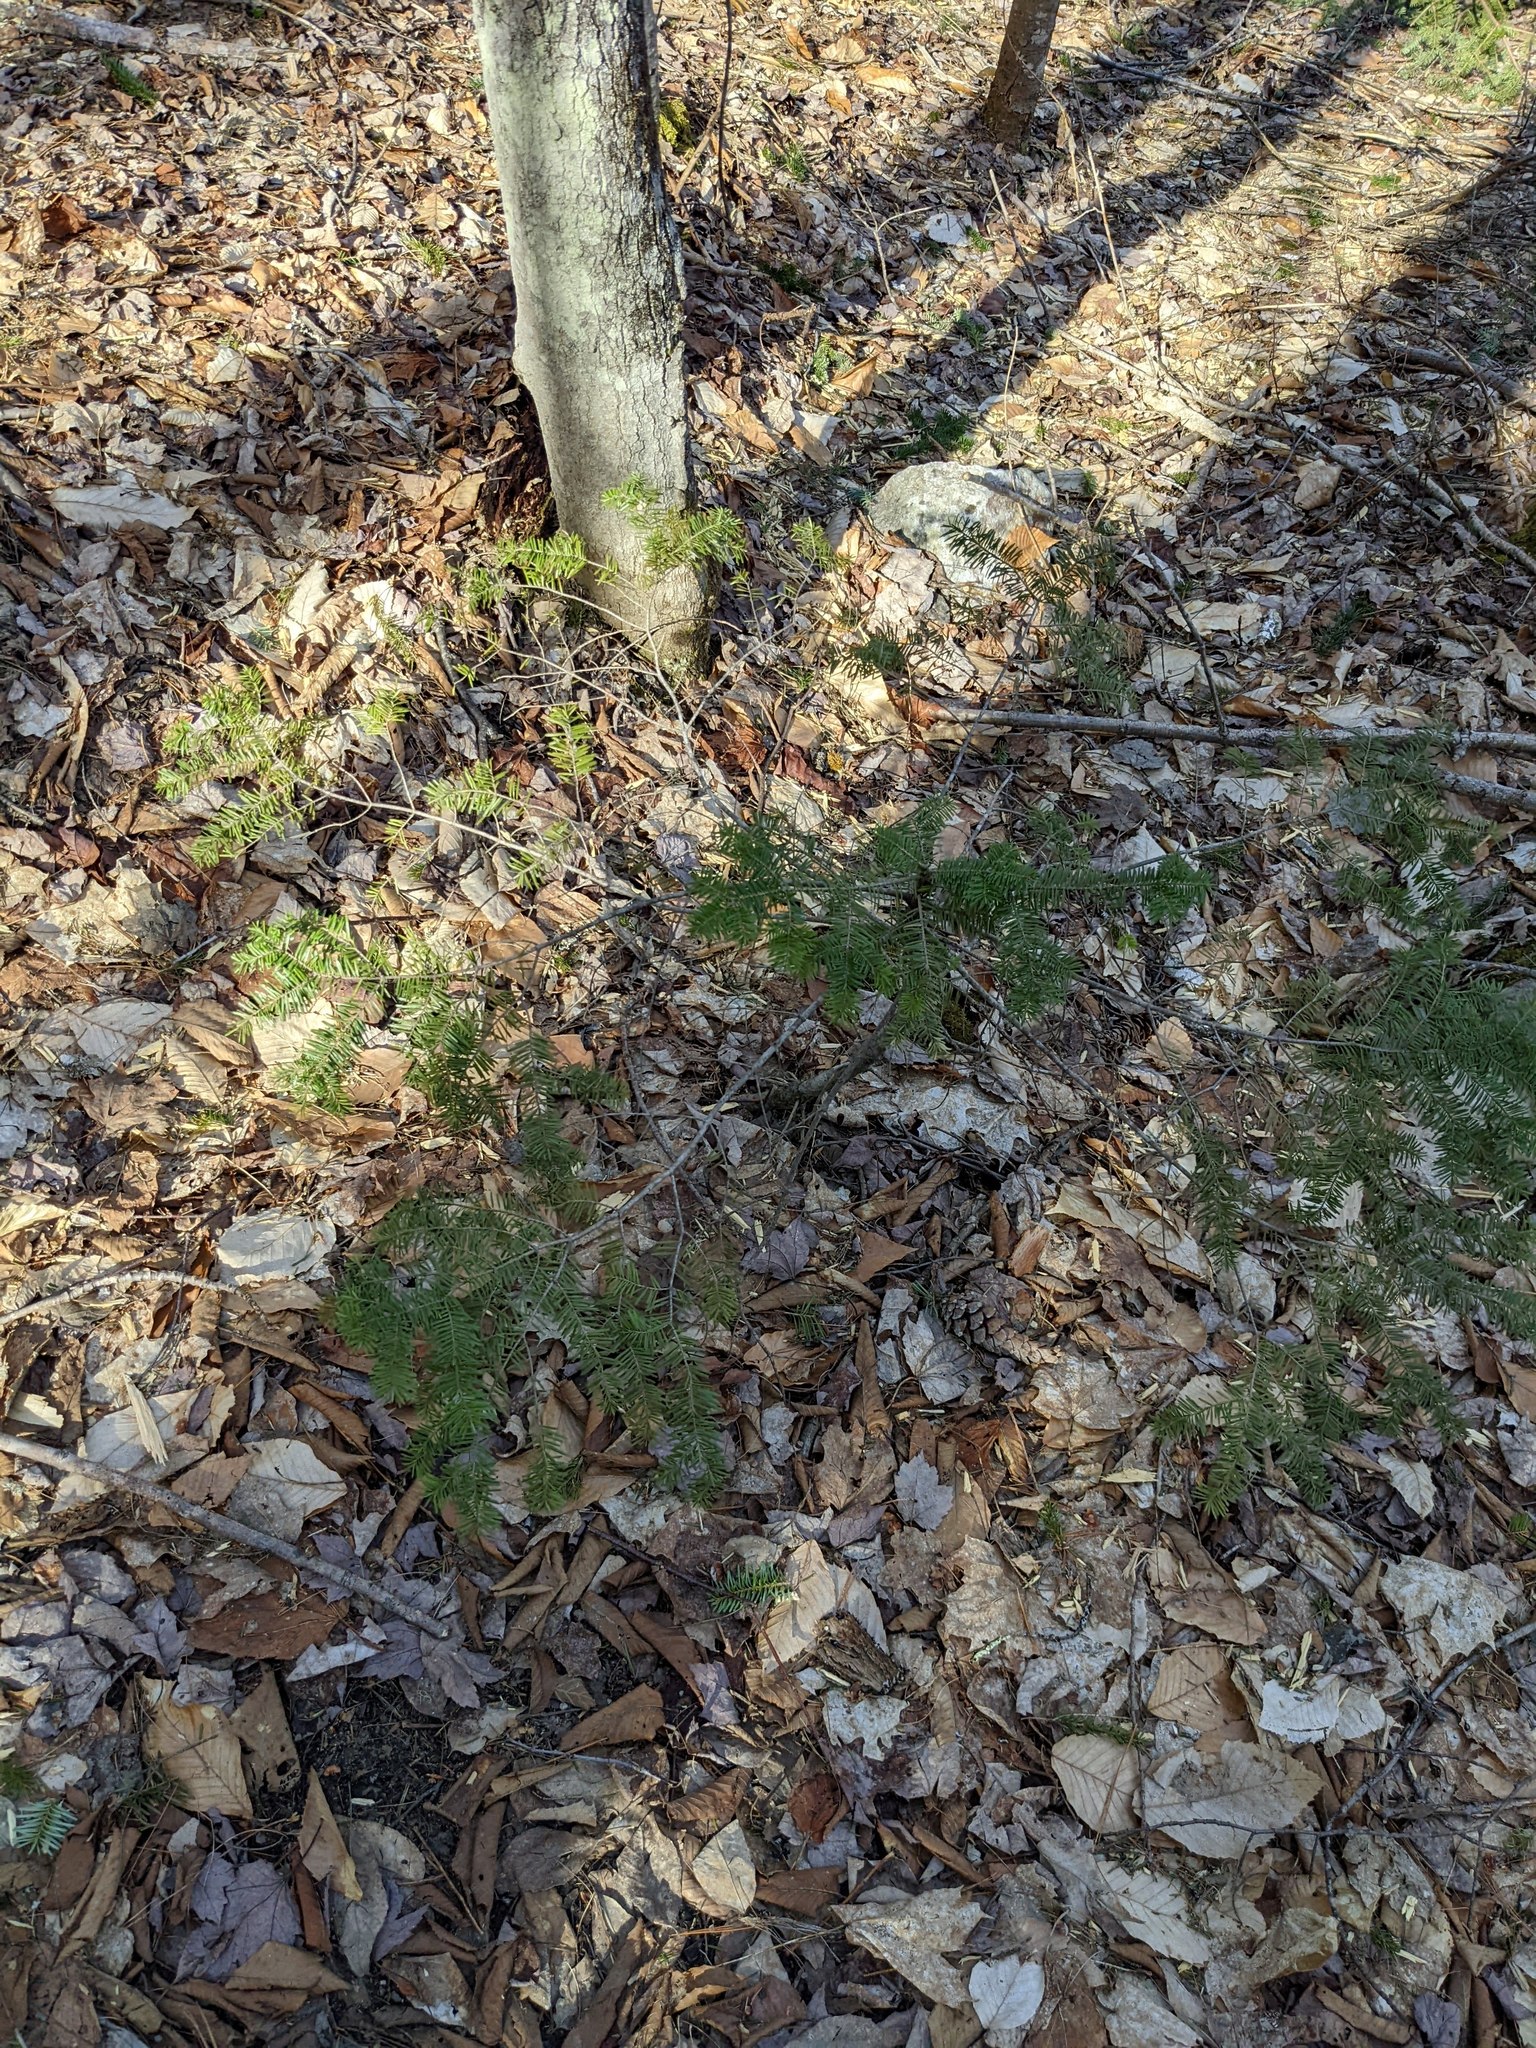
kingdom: Plantae
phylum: Tracheophyta
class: Pinopsida
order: Pinales
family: Pinaceae
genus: Abies
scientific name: Abies balsamea
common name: Balsam fir
